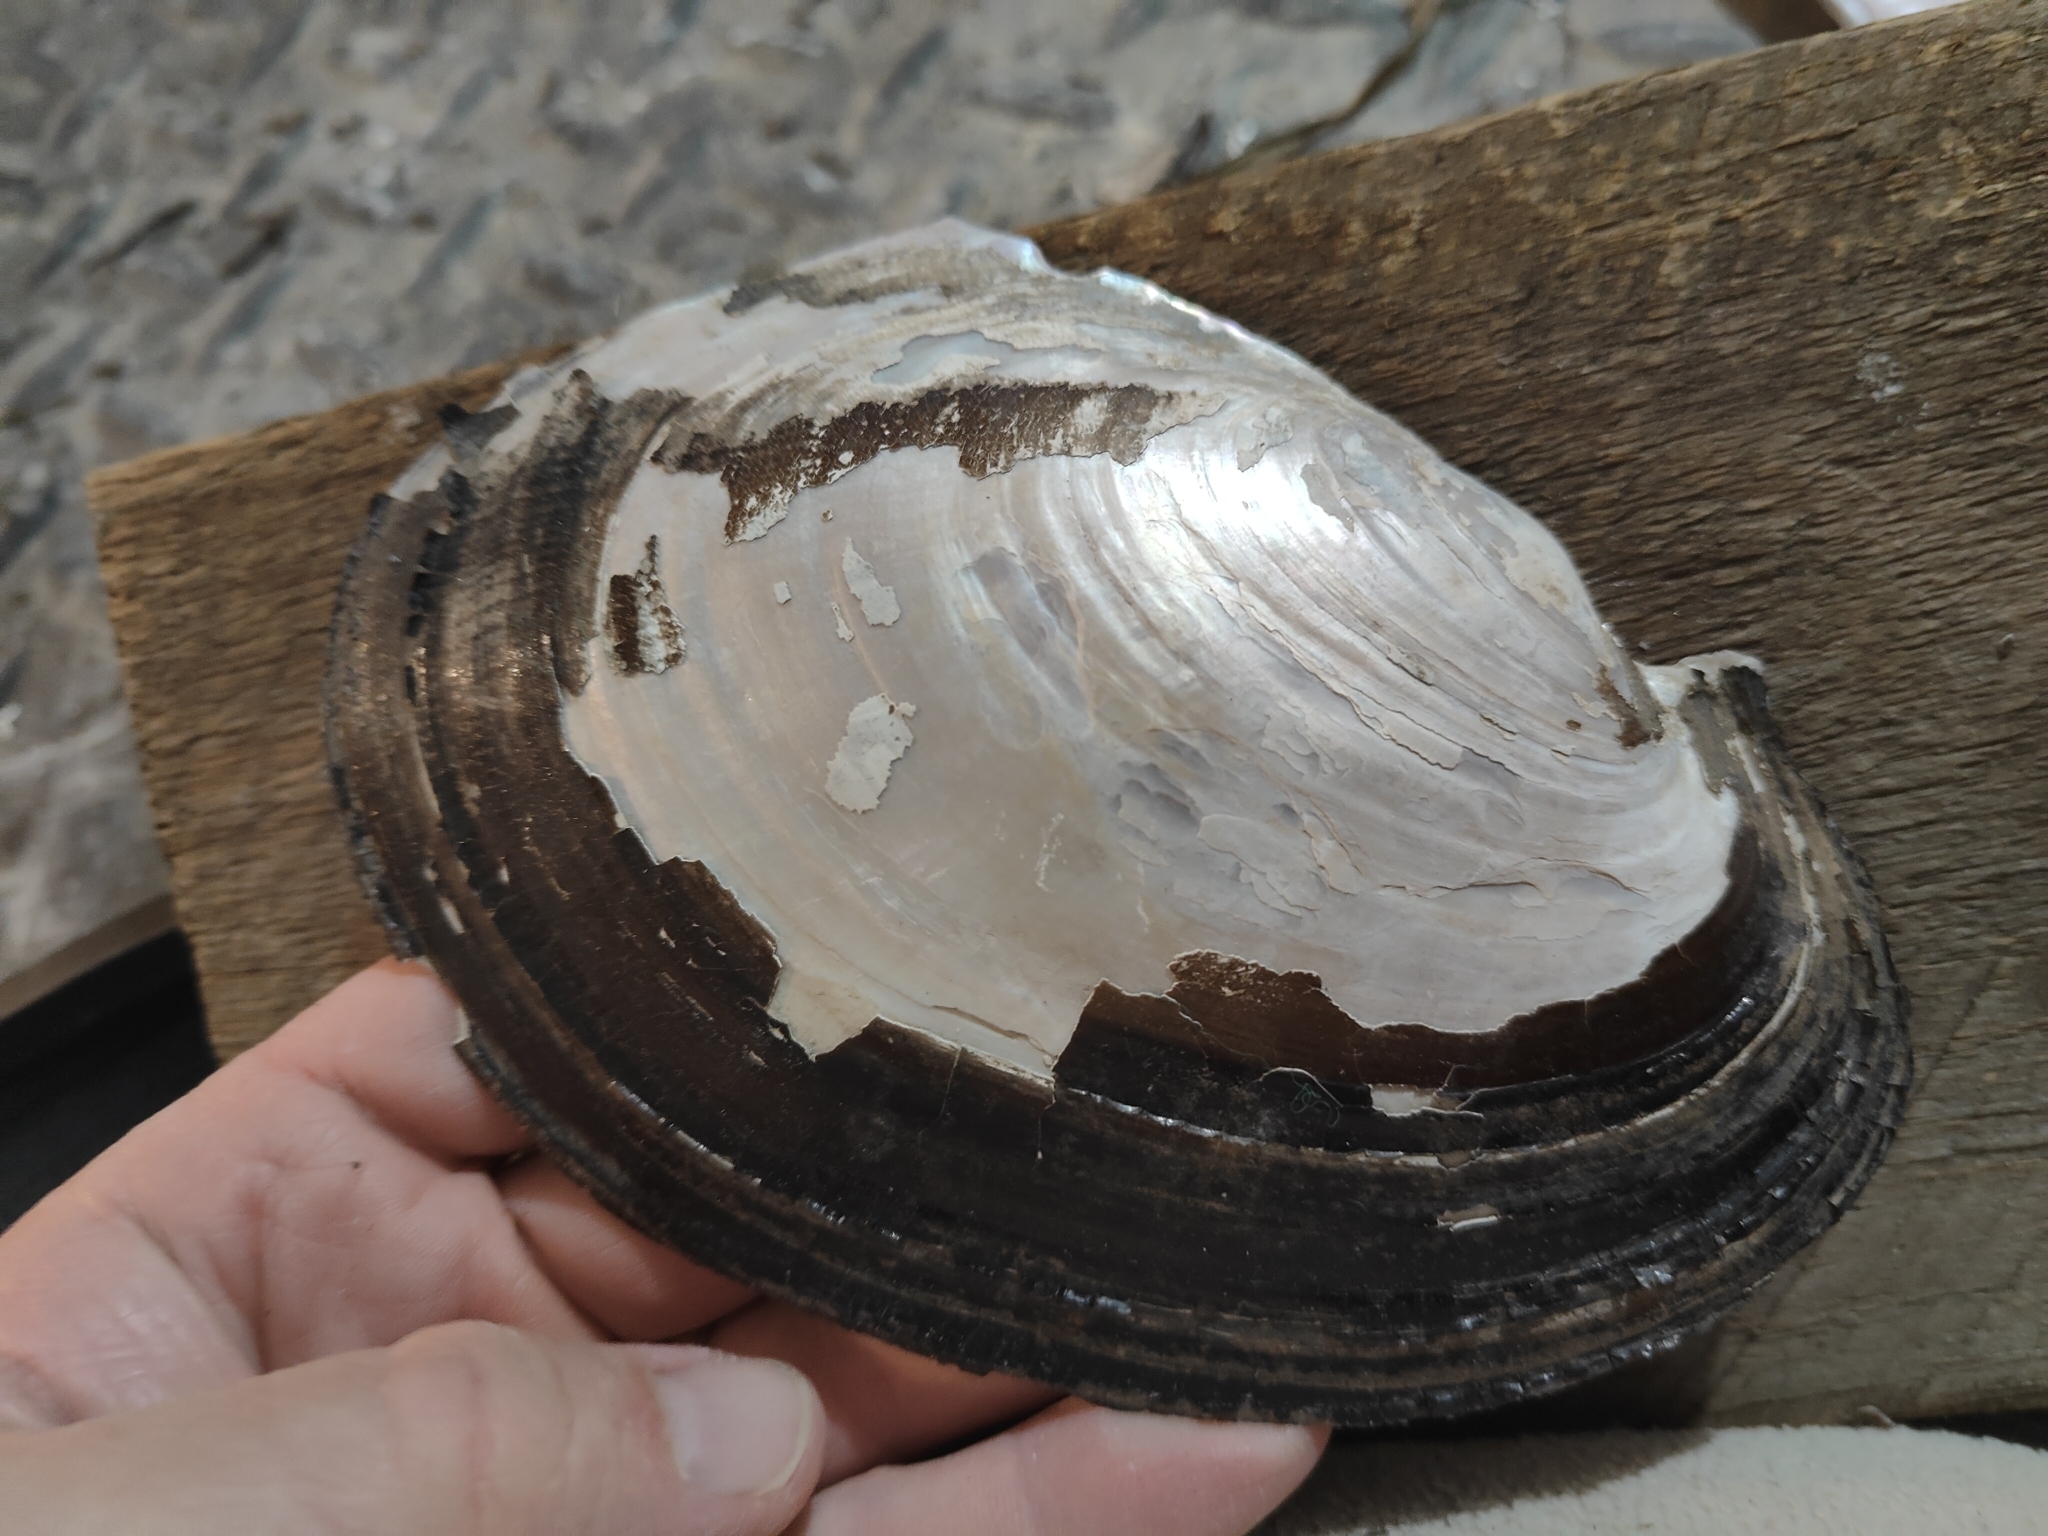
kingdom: Animalia
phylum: Mollusca
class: Bivalvia
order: Unionida
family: Unionidae
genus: Potamilus
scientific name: Potamilus ohiensis
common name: Pink papershell
